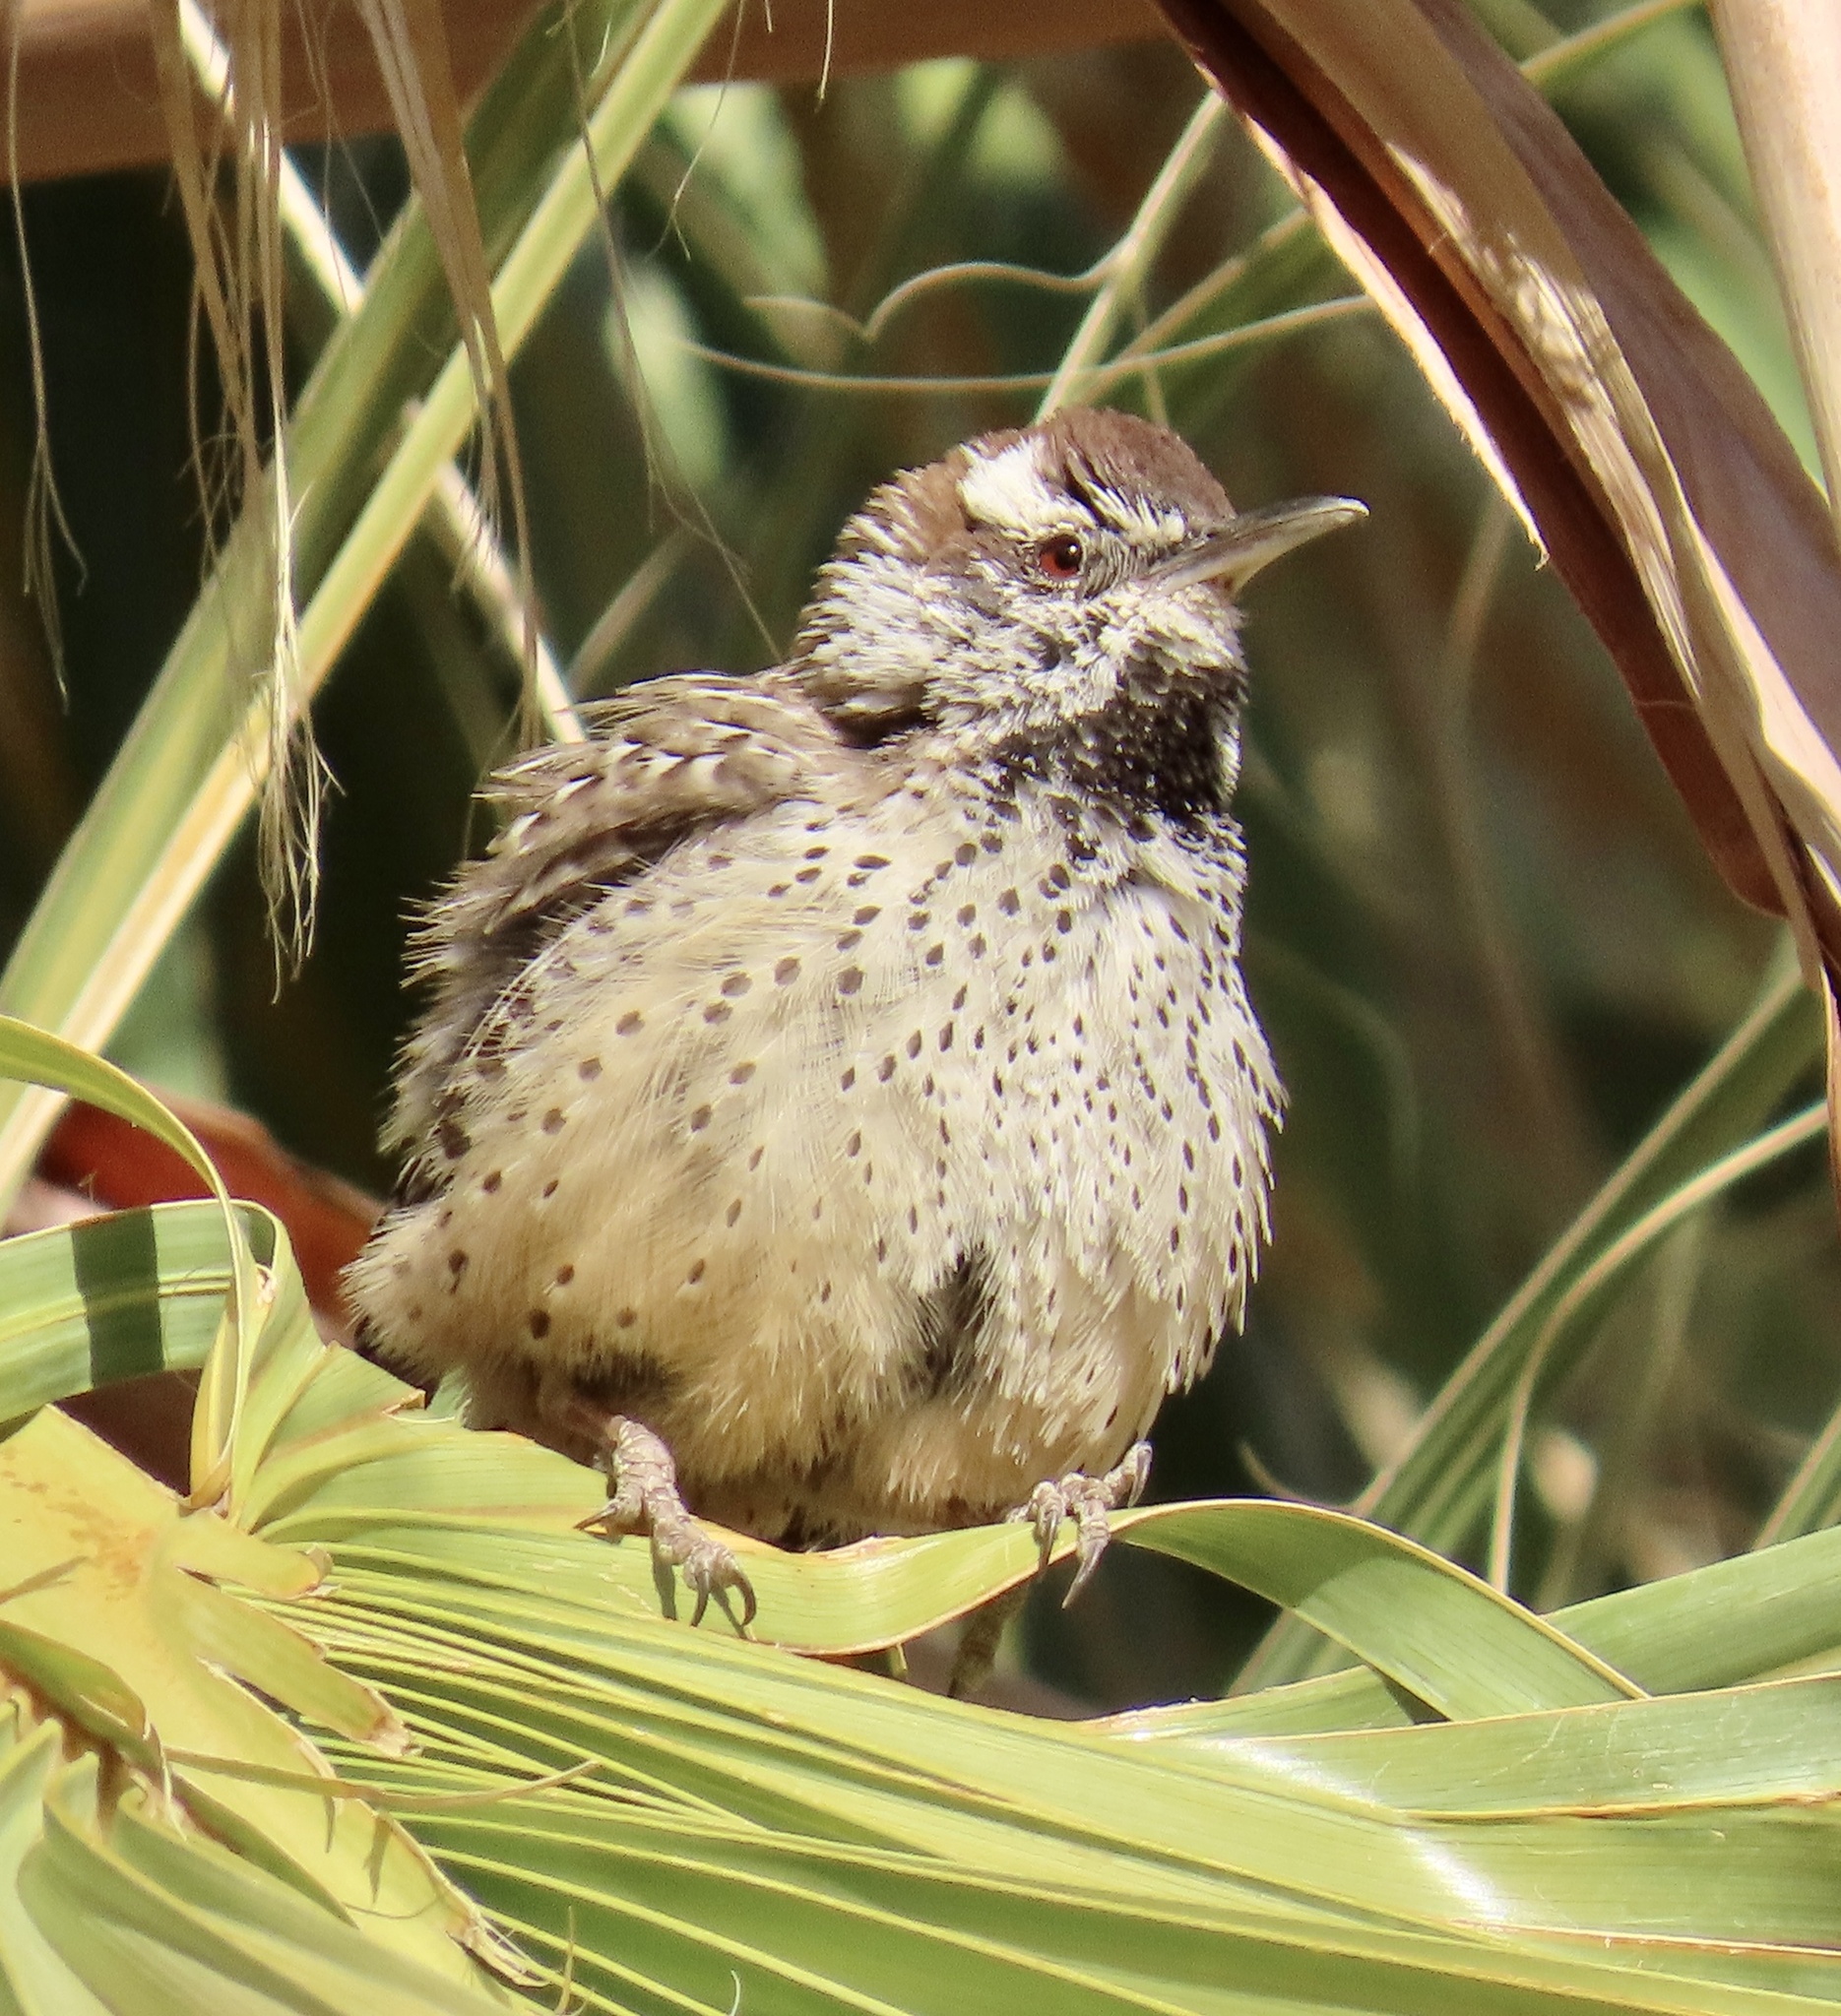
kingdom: Animalia
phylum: Chordata
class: Aves
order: Passeriformes
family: Troglodytidae
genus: Campylorhynchus
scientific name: Campylorhynchus brunneicapillus
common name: Cactus wren
